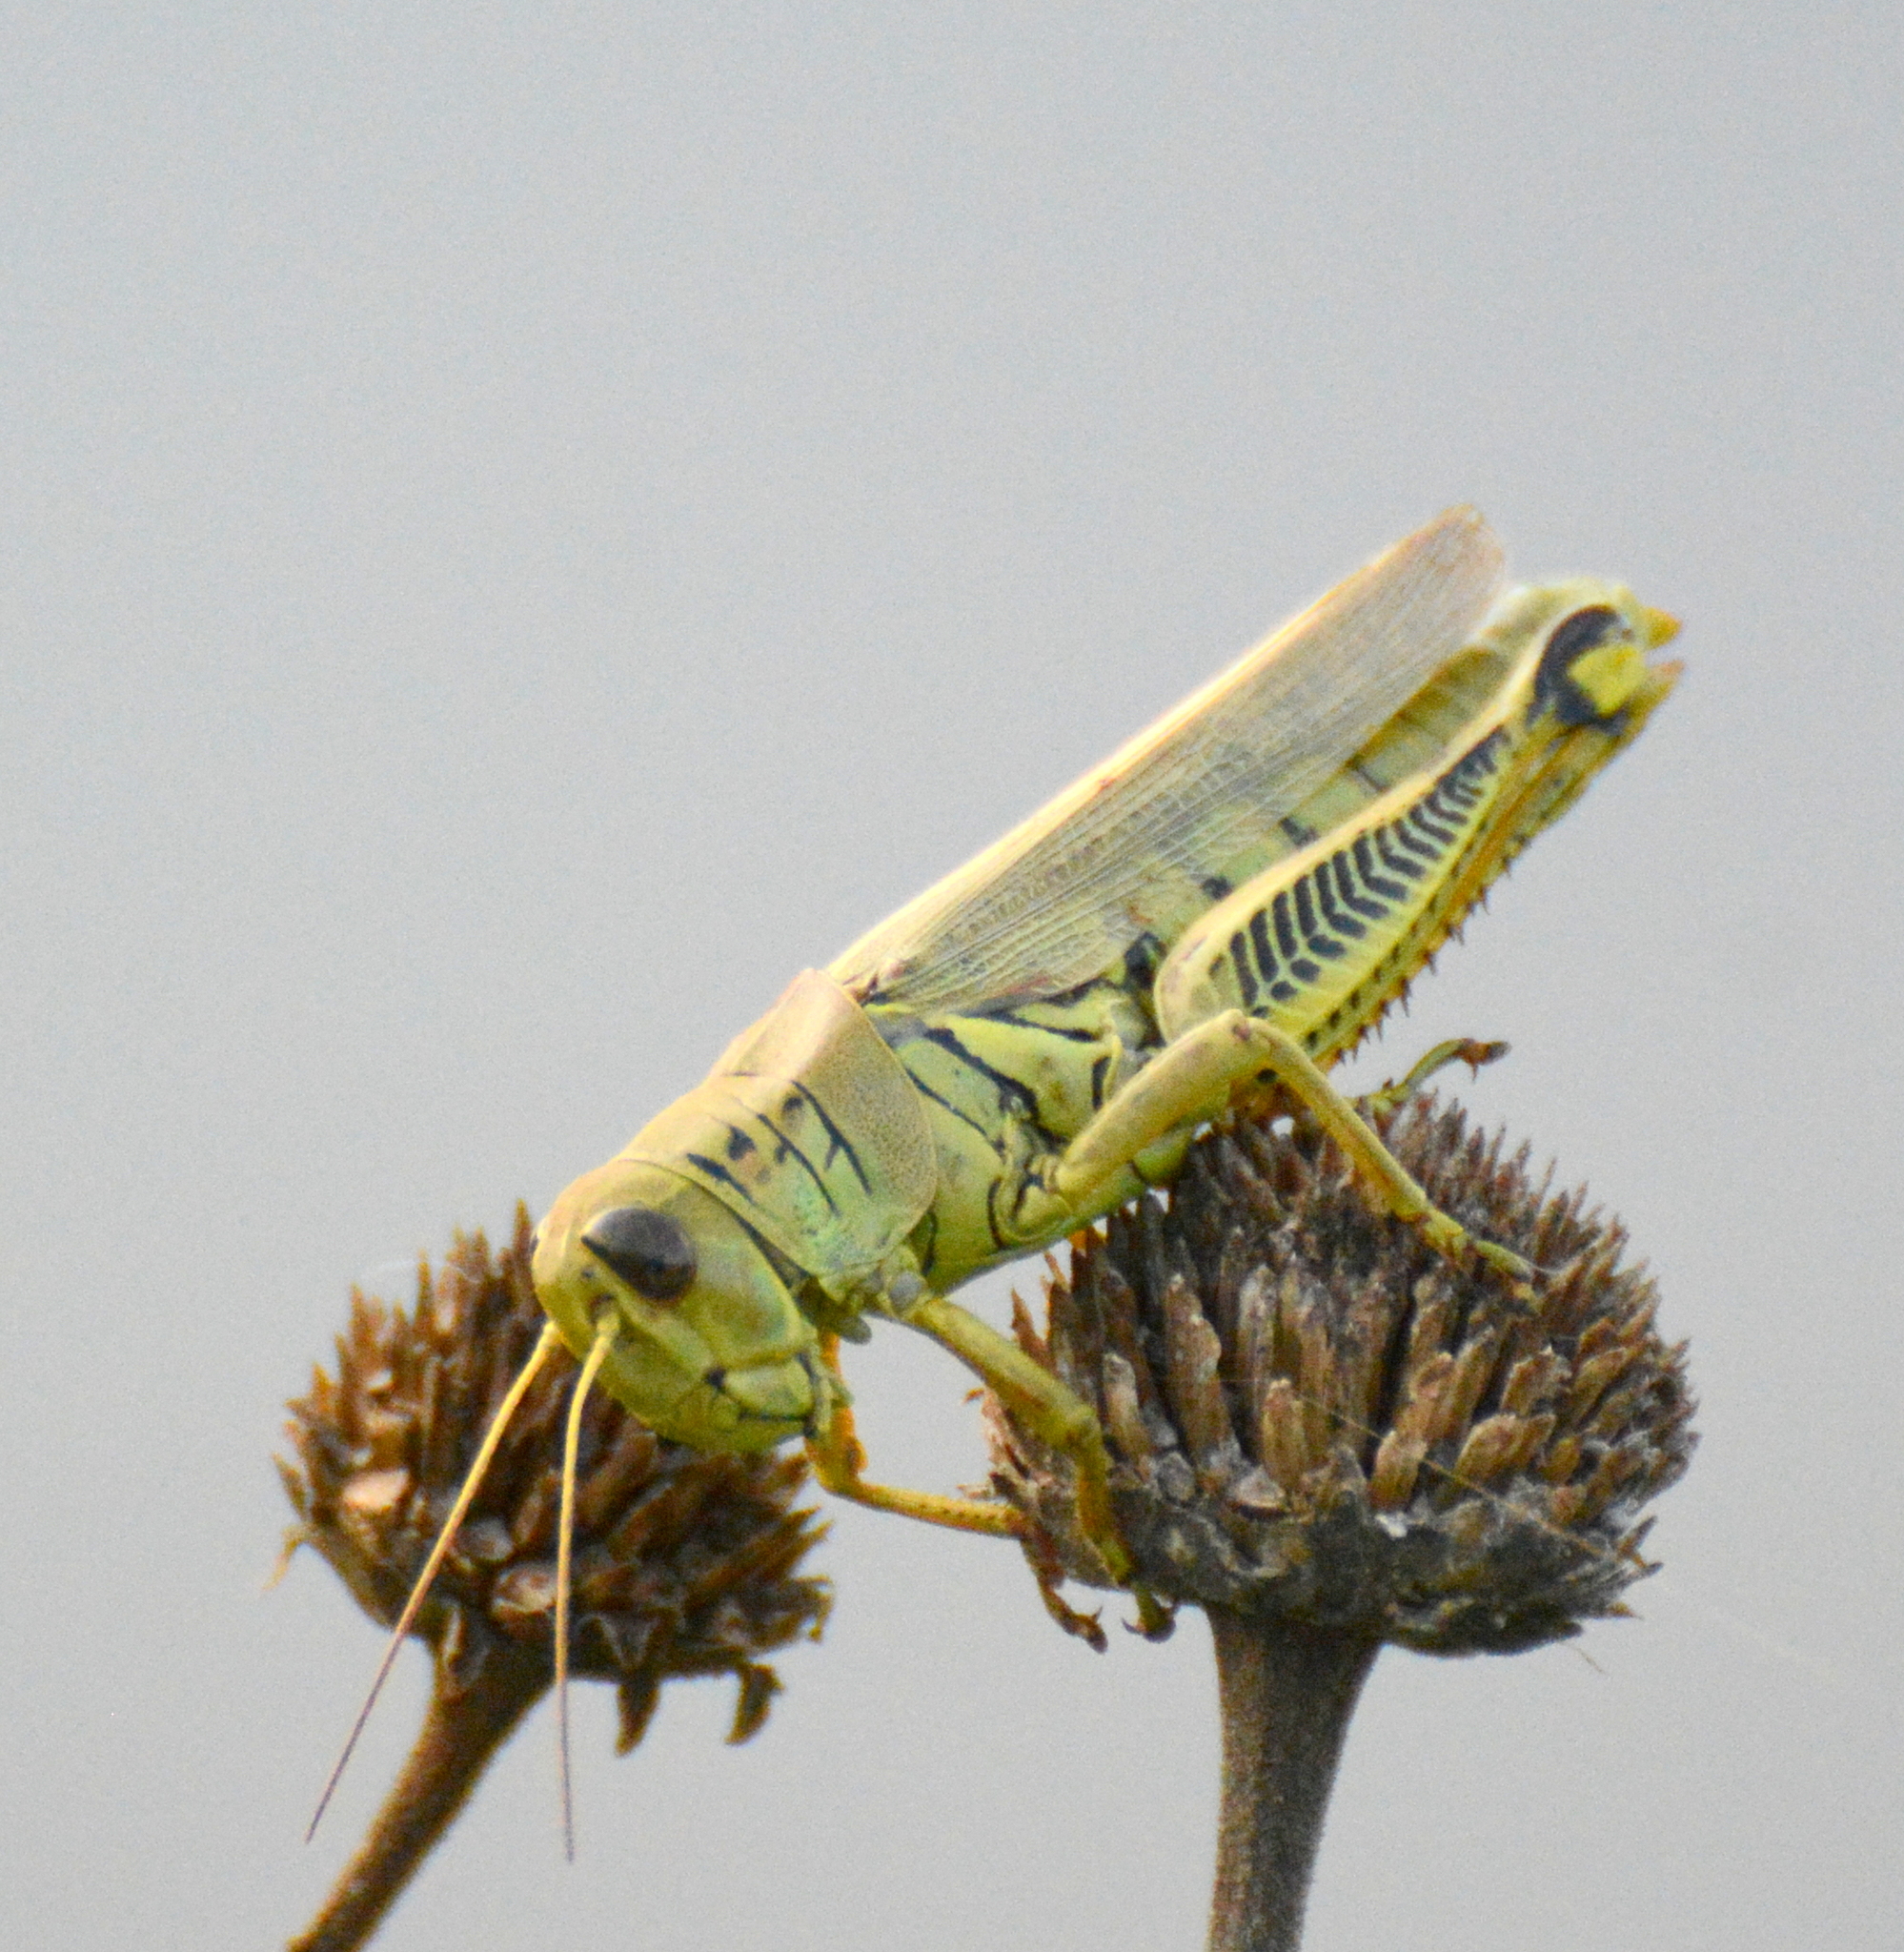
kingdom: Animalia
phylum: Arthropoda
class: Insecta
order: Orthoptera
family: Acrididae
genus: Melanoplus
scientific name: Melanoplus differentialis
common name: Differential grasshopper
